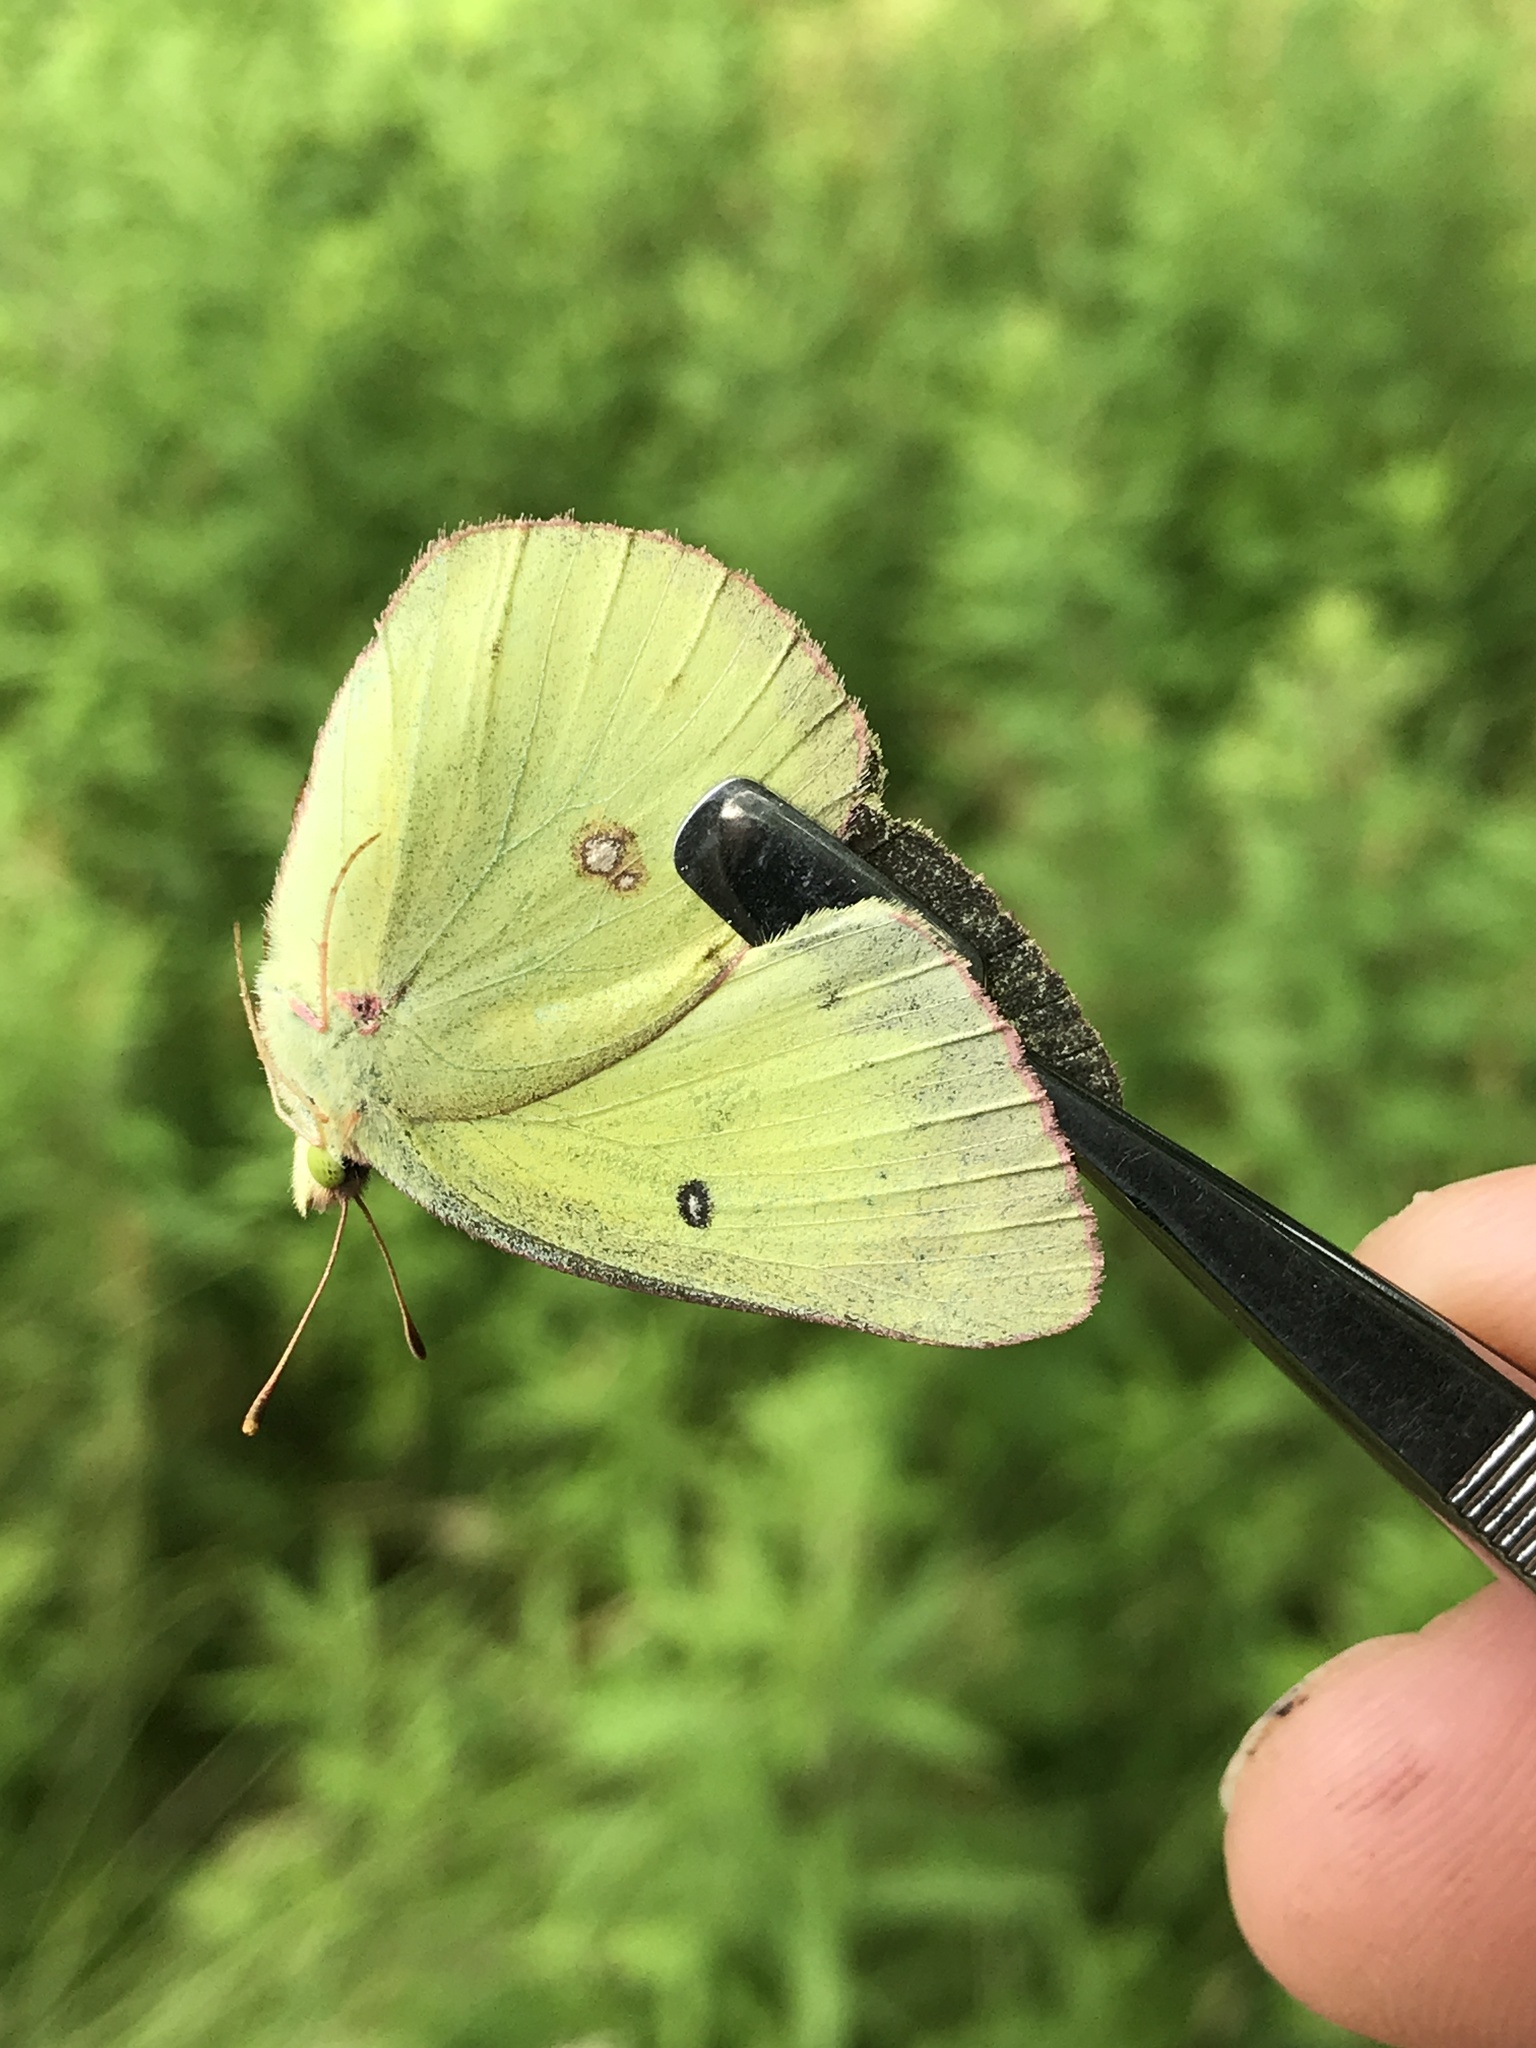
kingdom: Animalia
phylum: Arthropoda
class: Insecta
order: Lepidoptera
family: Pieridae
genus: Colias
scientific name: Colias philodice
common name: Clouded sulphur
